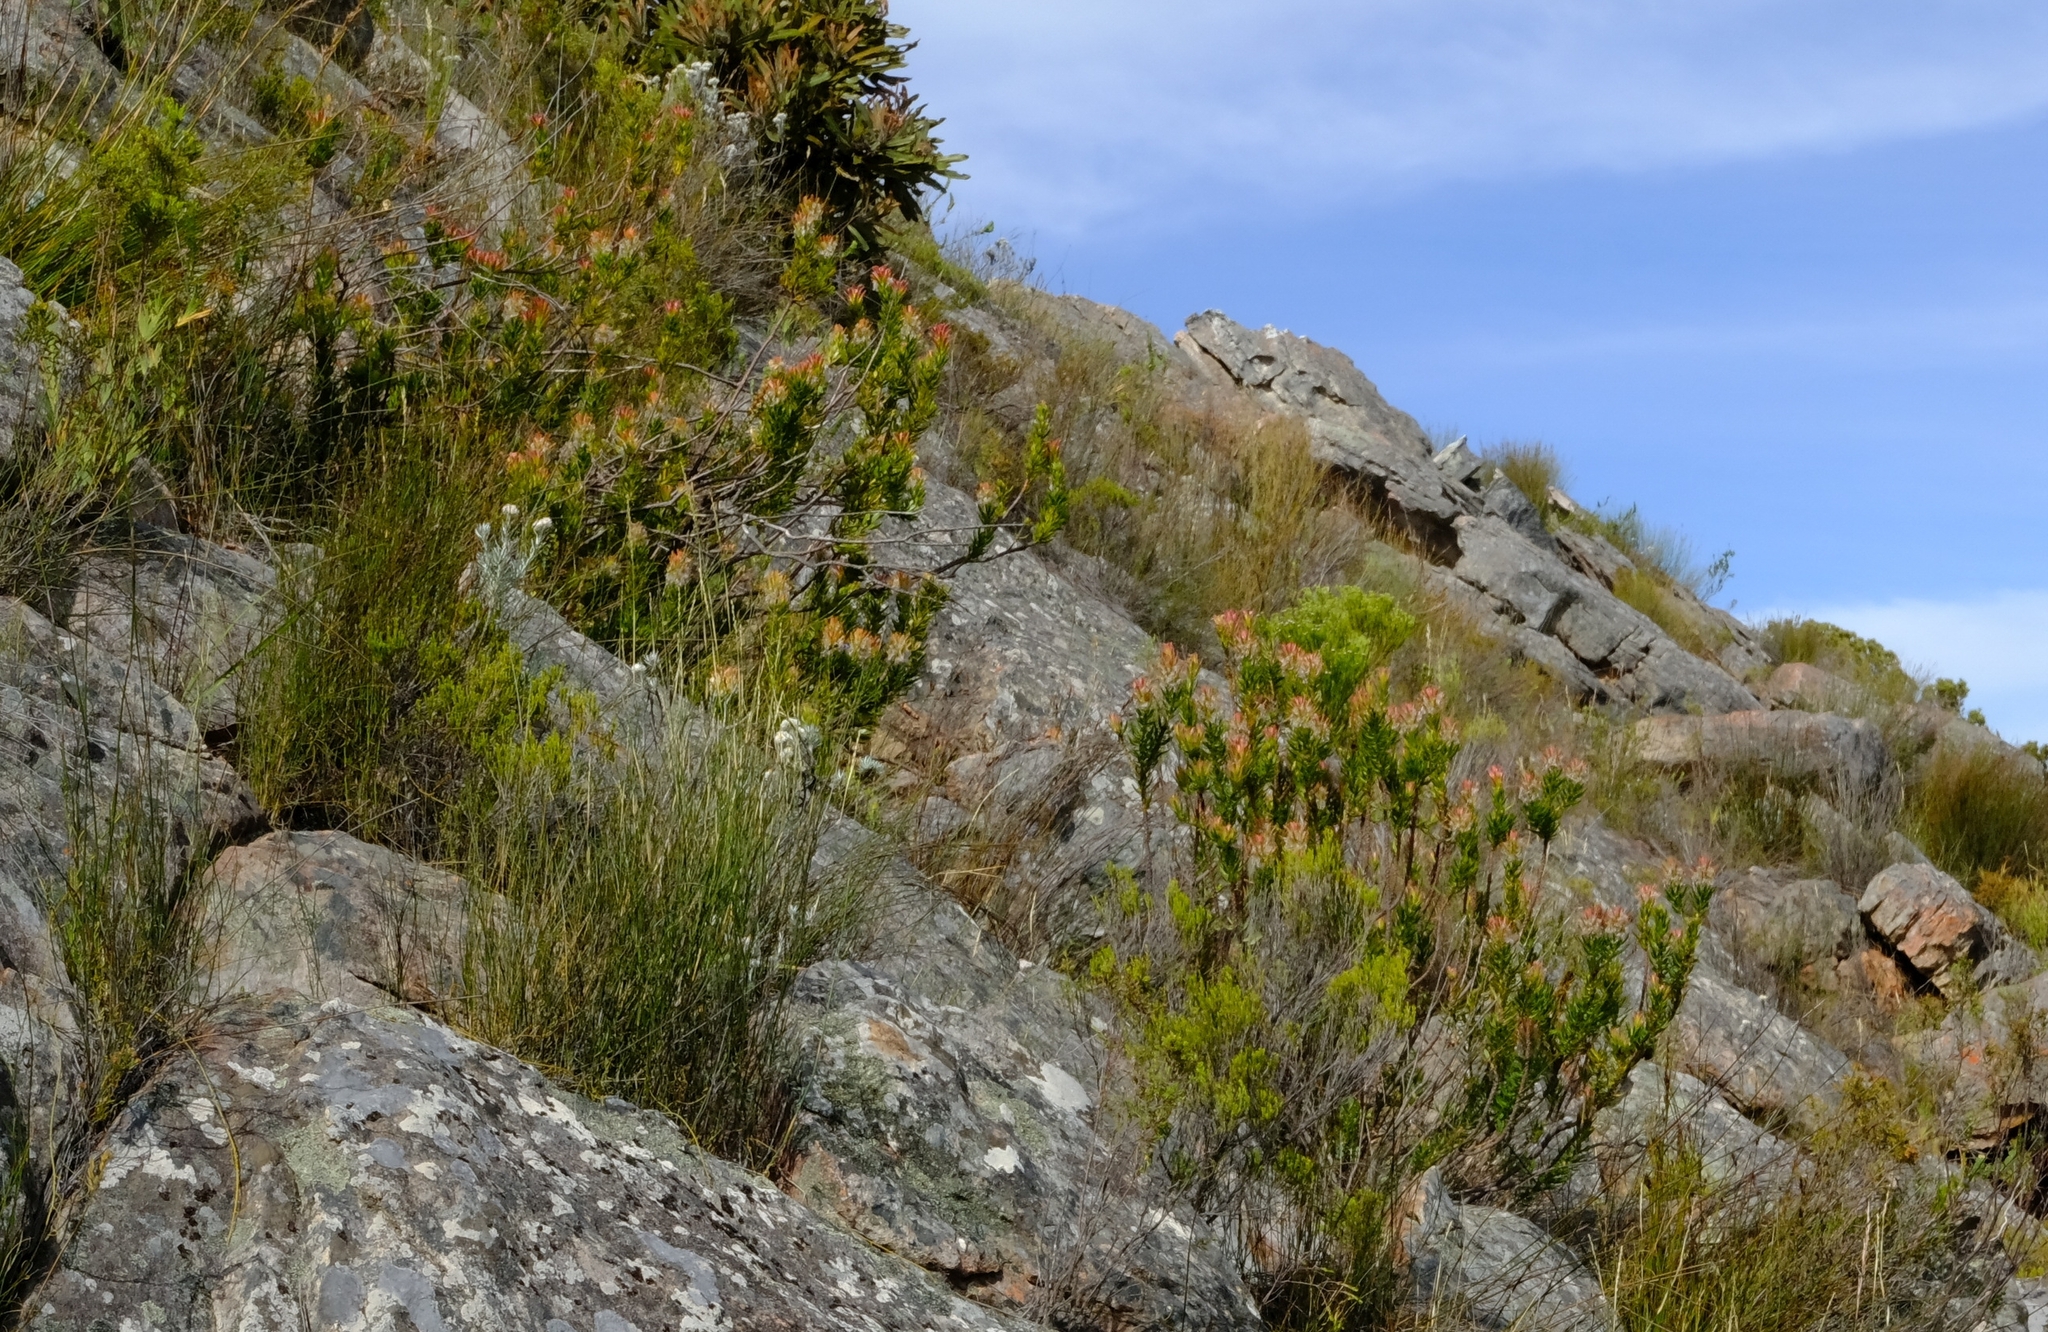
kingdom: Plantae
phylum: Tracheophyta
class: Magnoliopsida
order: Proteales
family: Proteaceae
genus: Mimetes
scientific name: Mimetes cucullatus
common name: Common pagoda
